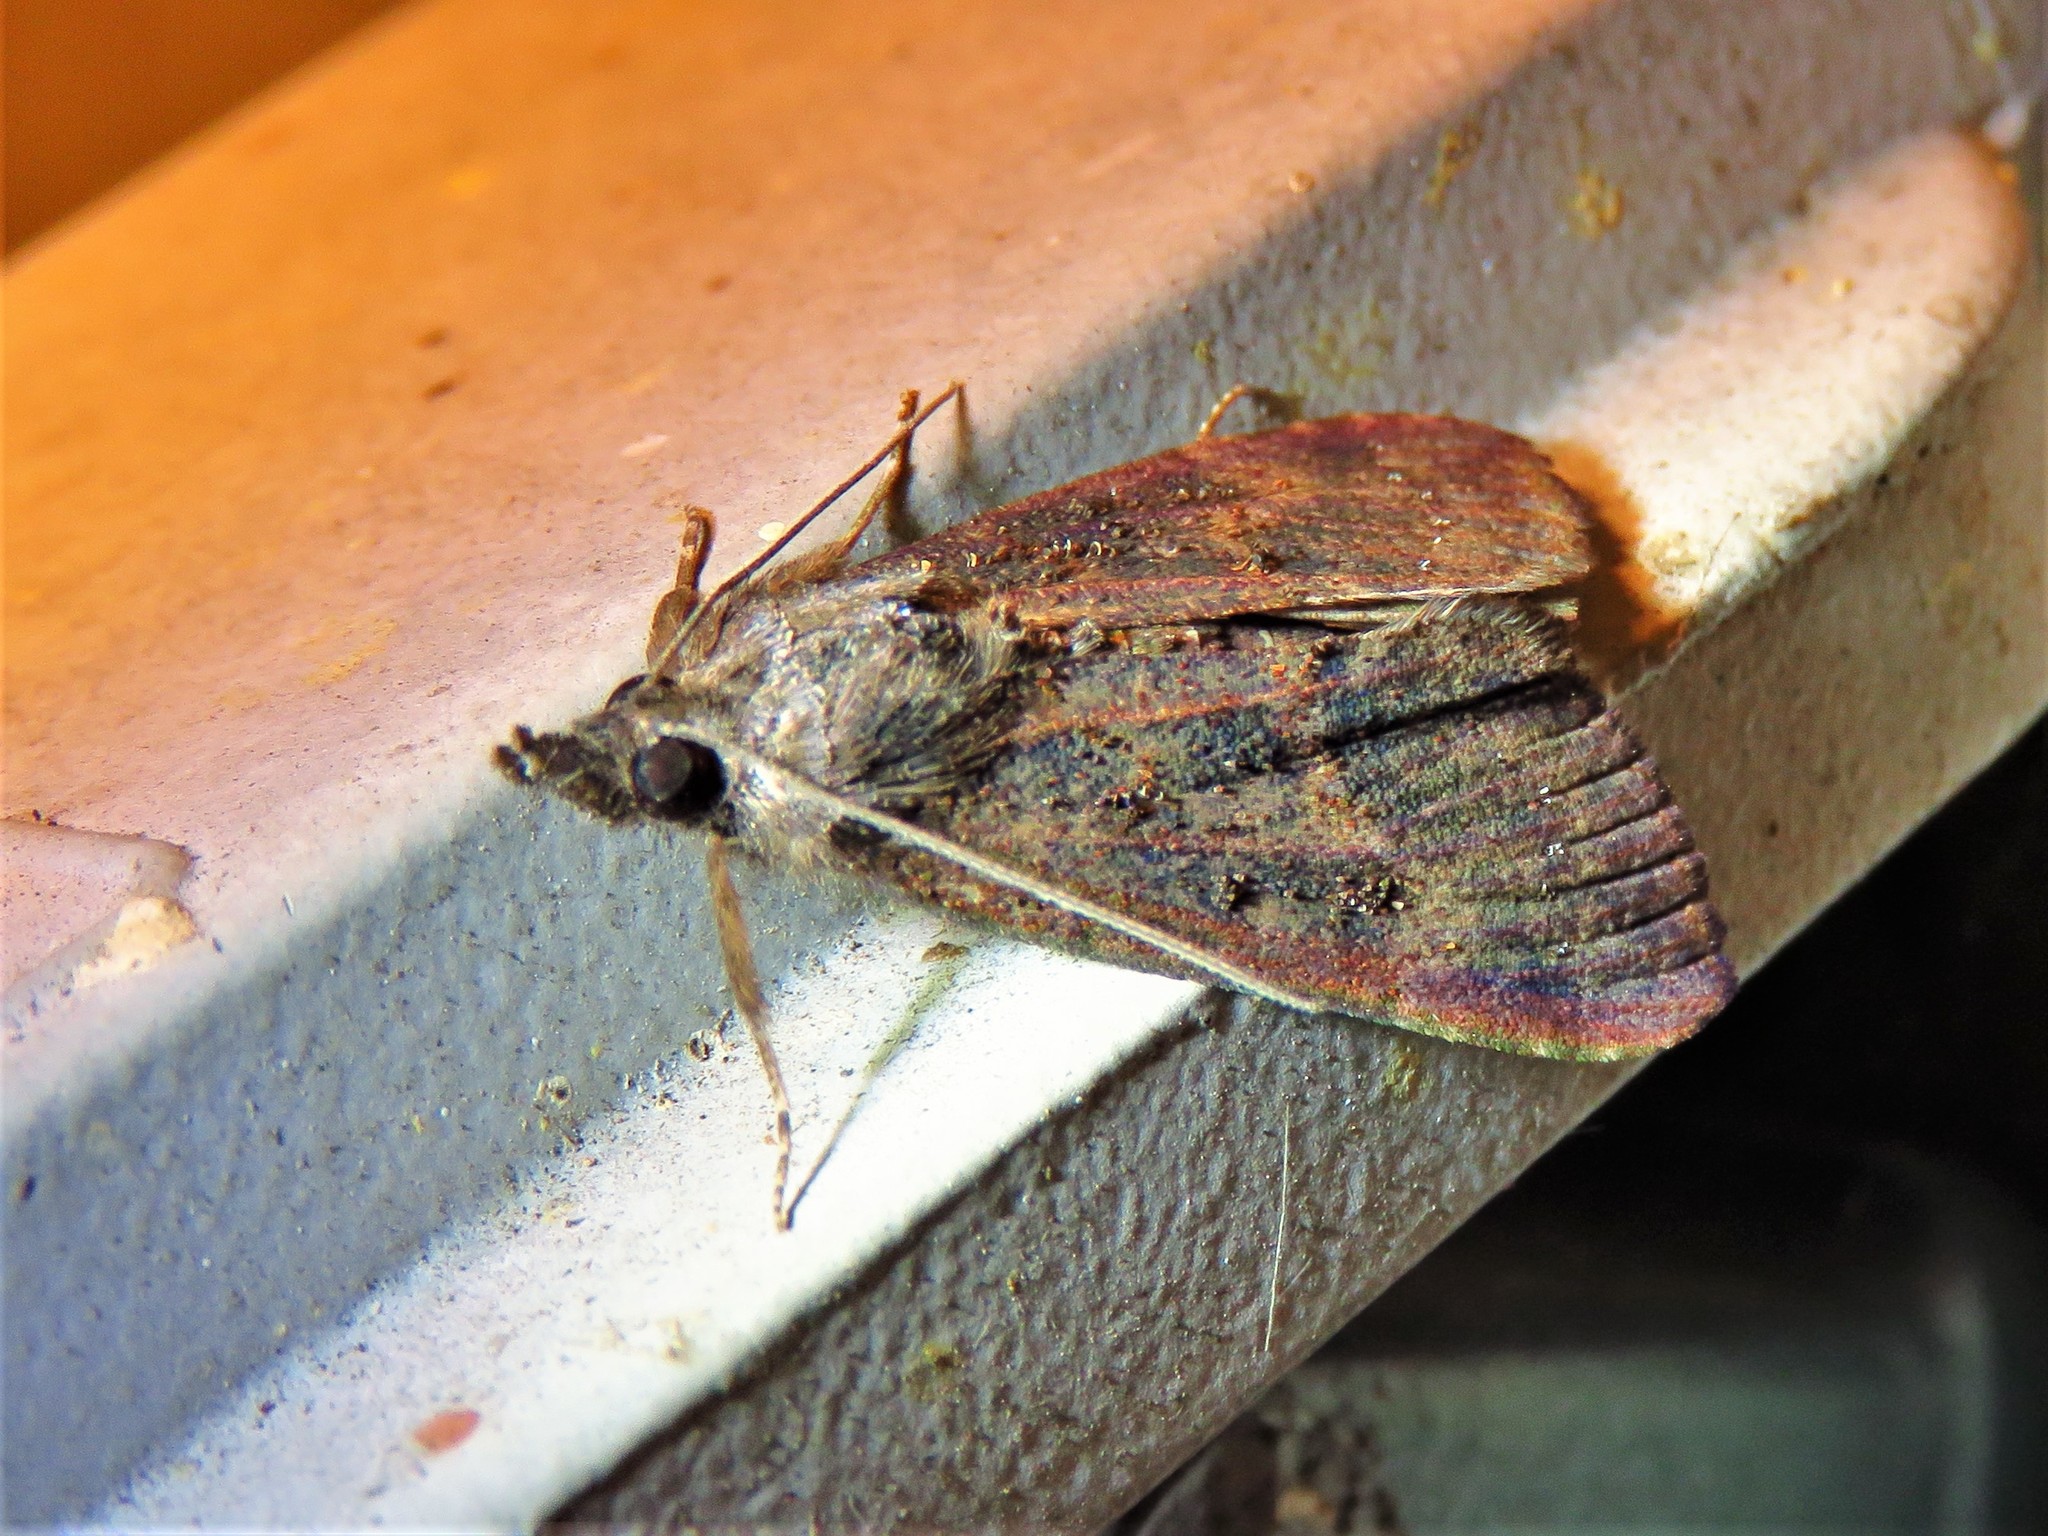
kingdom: Animalia
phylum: Arthropoda
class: Insecta
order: Lepidoptera
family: Erebidae
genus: Hypena
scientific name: Hypena scabra
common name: Green cloverworm
